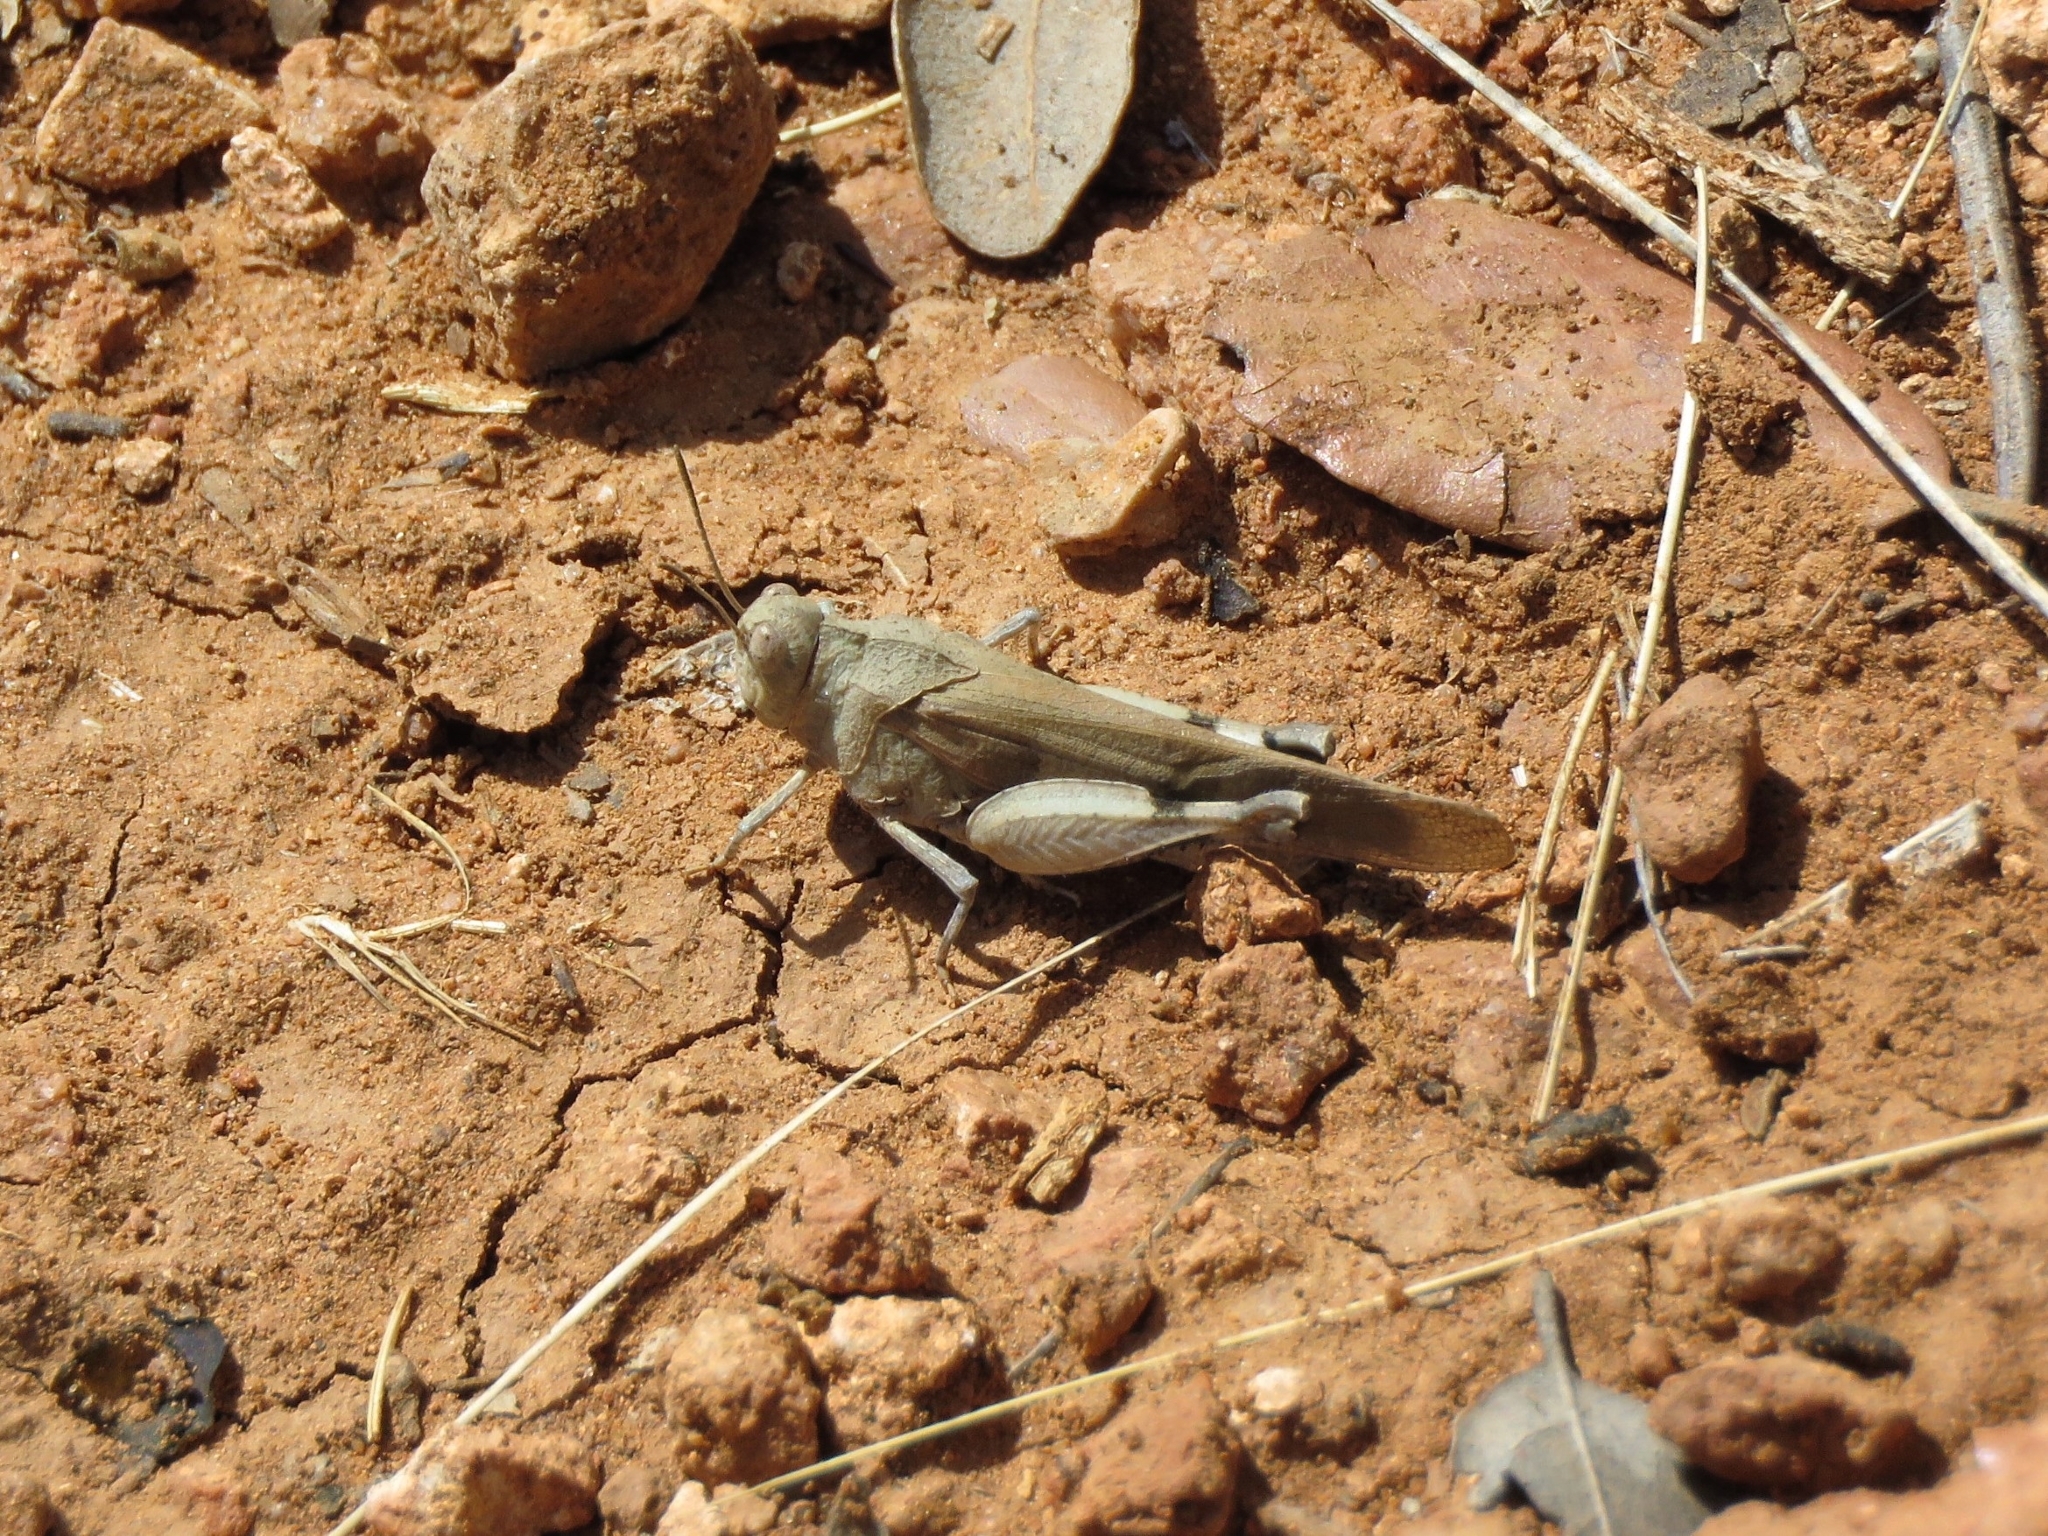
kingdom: Animalia
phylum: Arthropoda
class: Insecta
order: Orthoptera
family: Acrididae
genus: Oedipoda
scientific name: Oedipoda coerulea
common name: Iberian band-winged grasshopper
